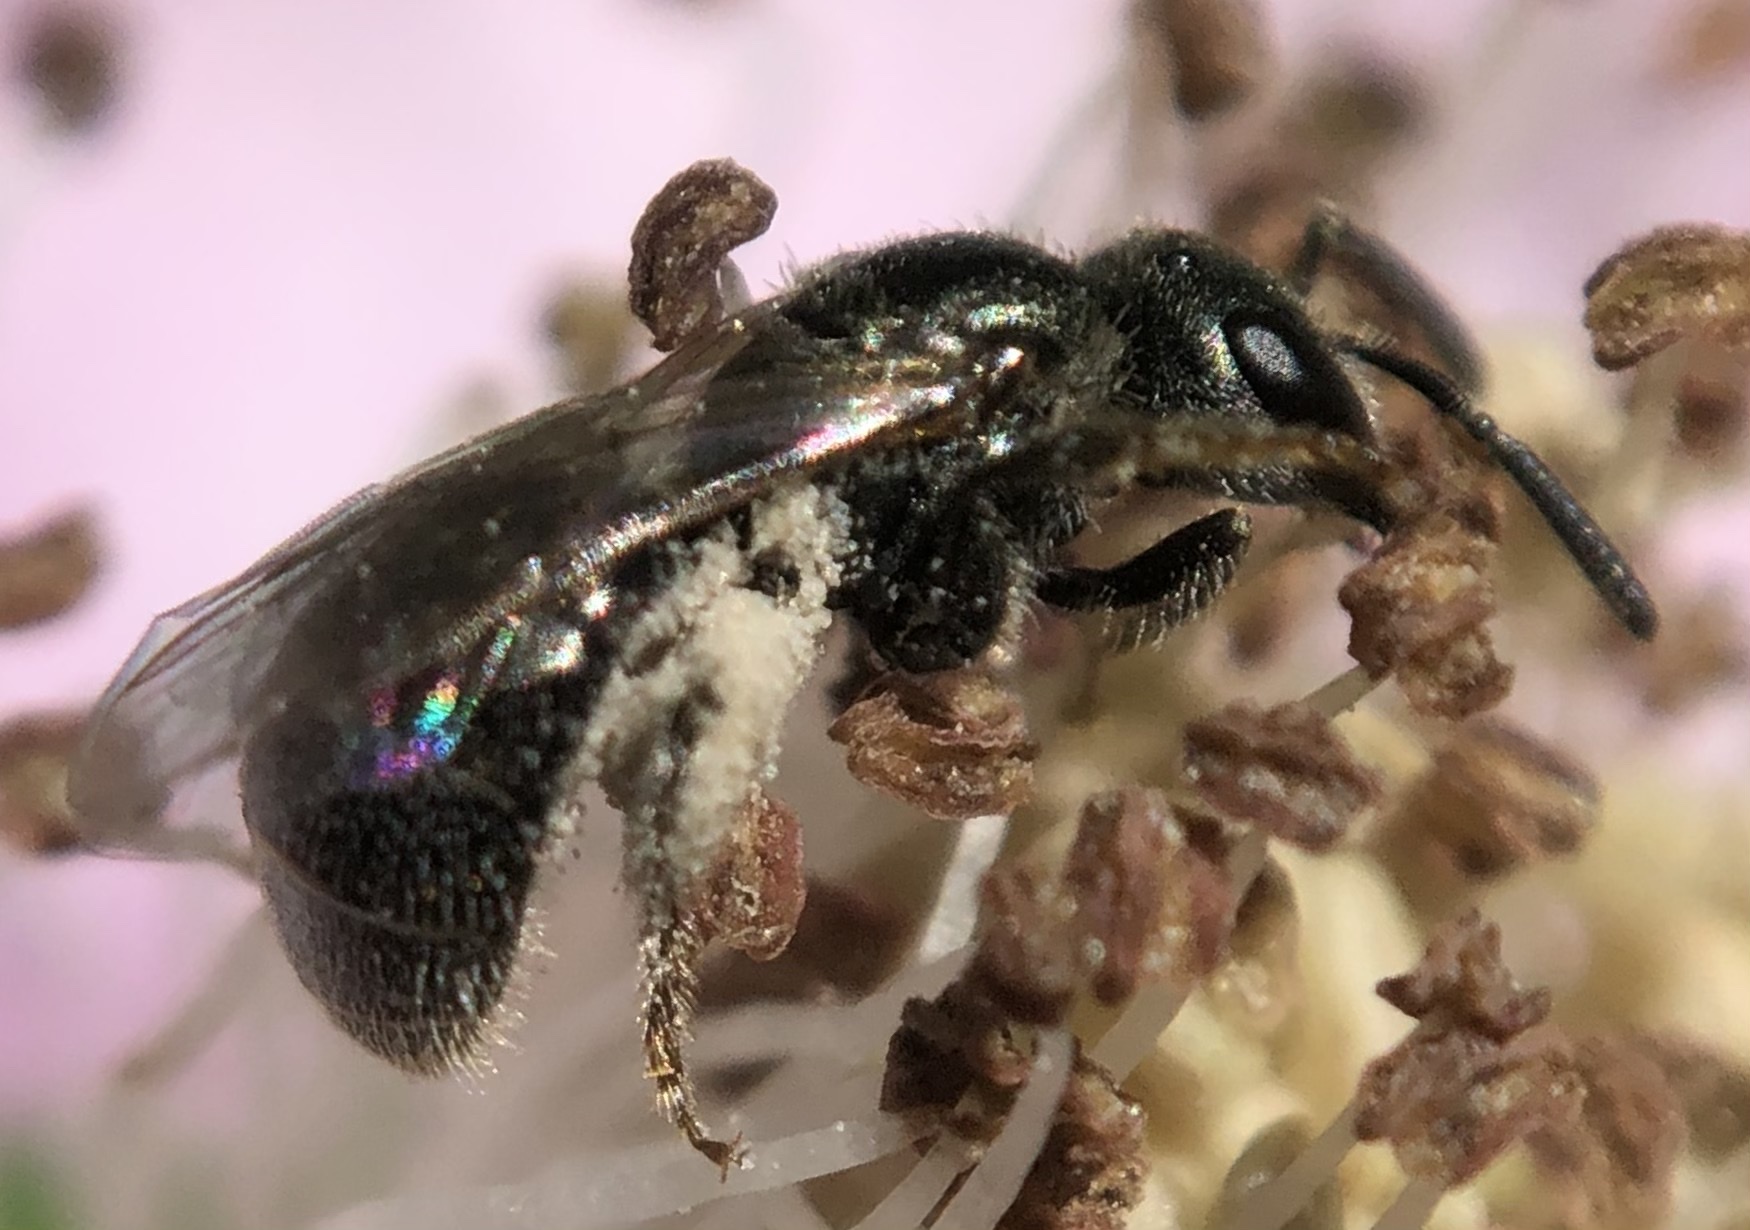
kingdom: Animalia
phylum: Arthropoda
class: Insecta
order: Hymenoptera
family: Halictidae
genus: Lasioglossum
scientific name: Lasioglossum imitatum
